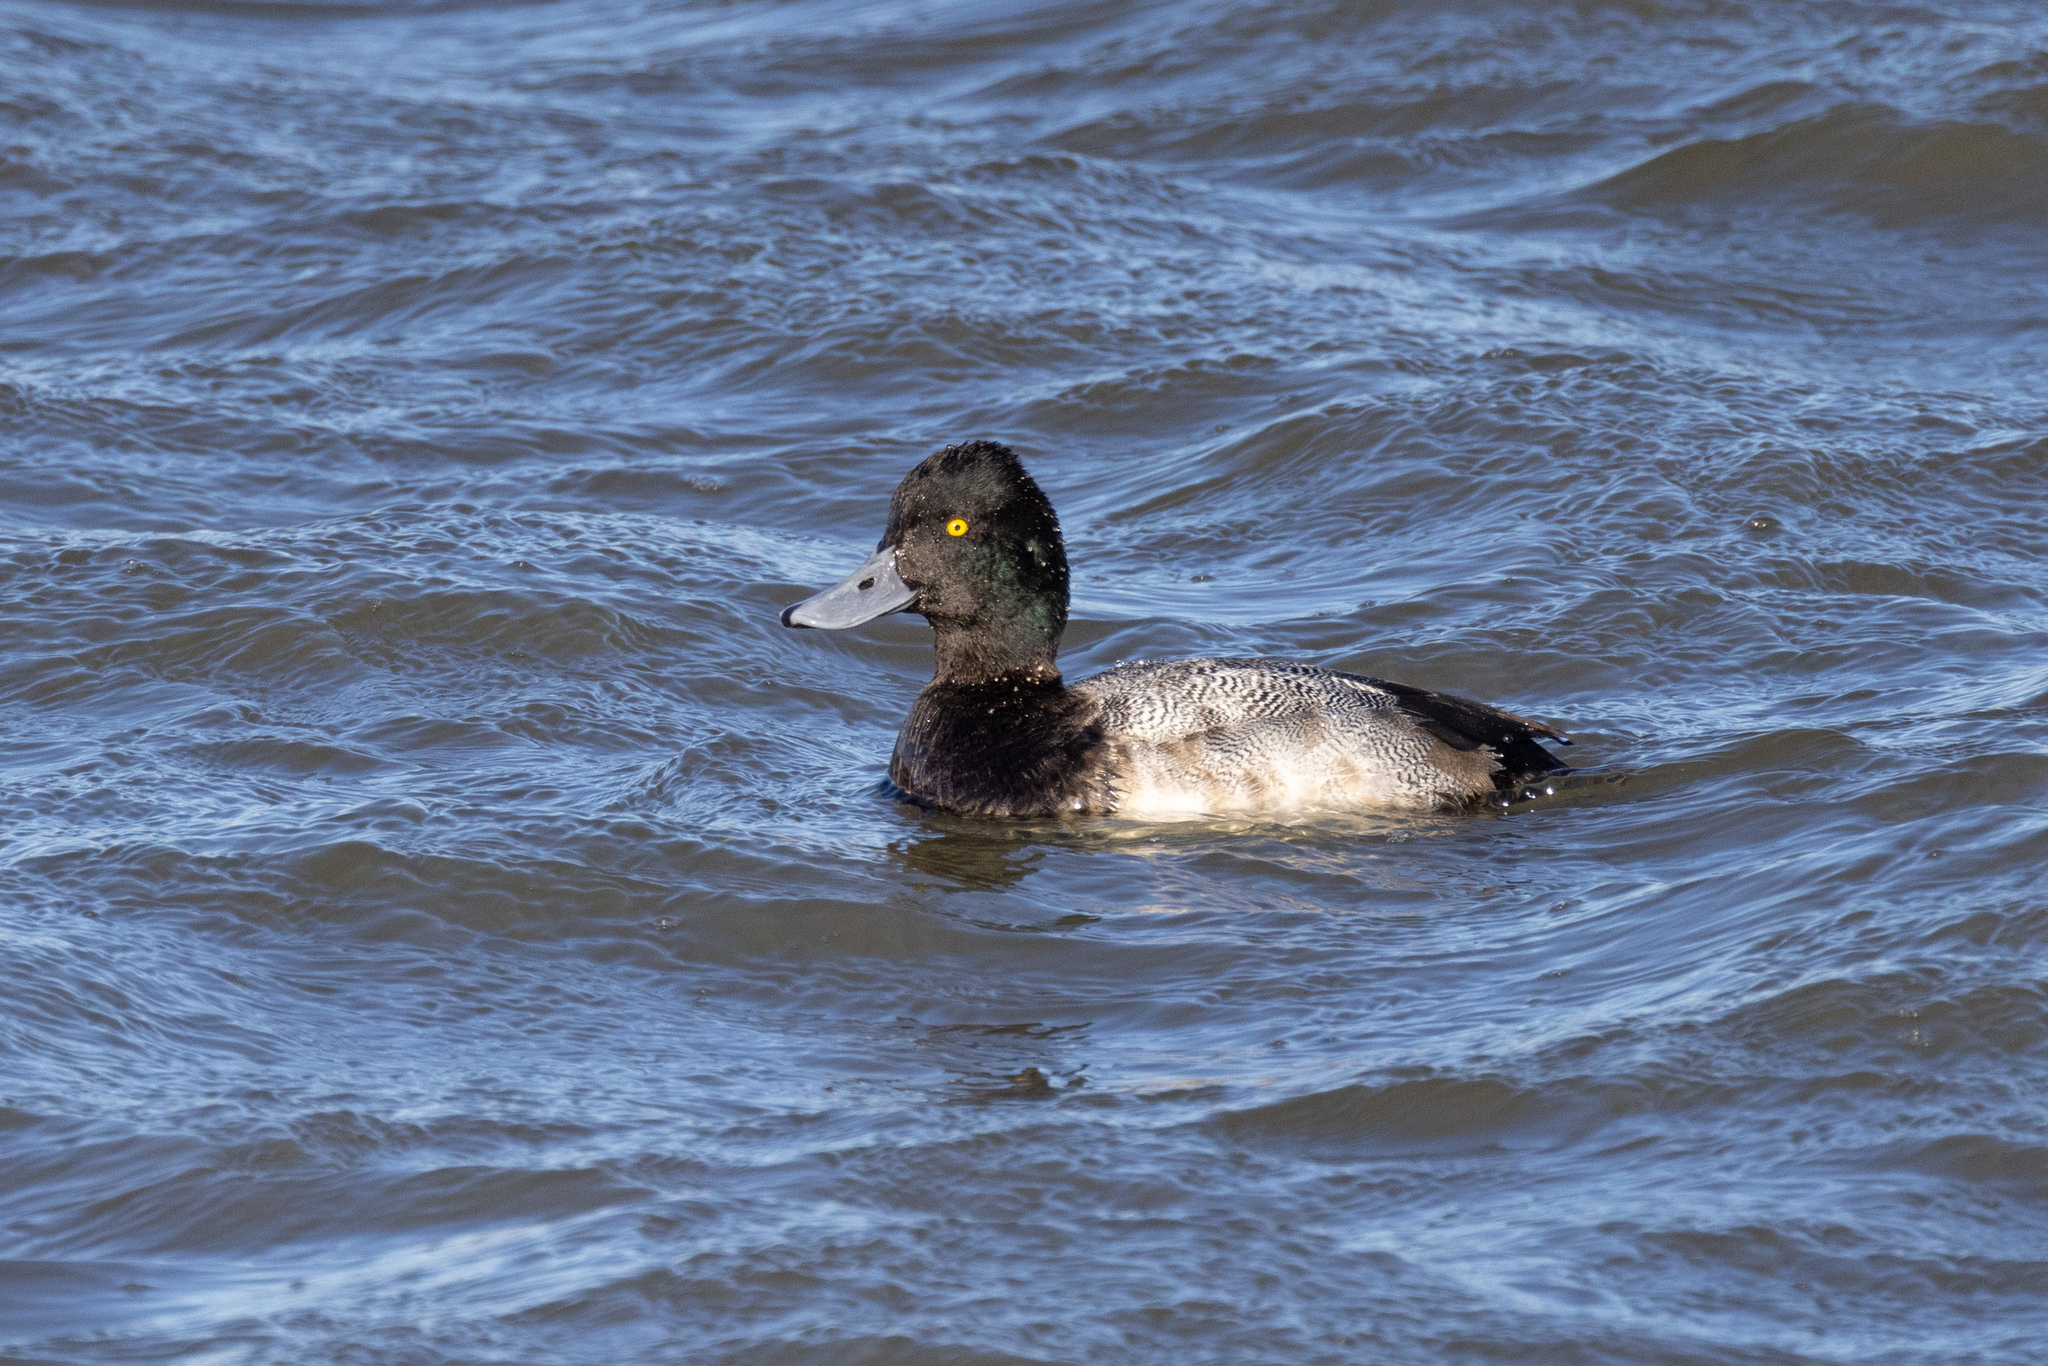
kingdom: Animalia
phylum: Chordata
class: Aves
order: Anseriformes
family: Anatidae
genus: Aythya
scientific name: Aythya affinis
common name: Lesser scaup
